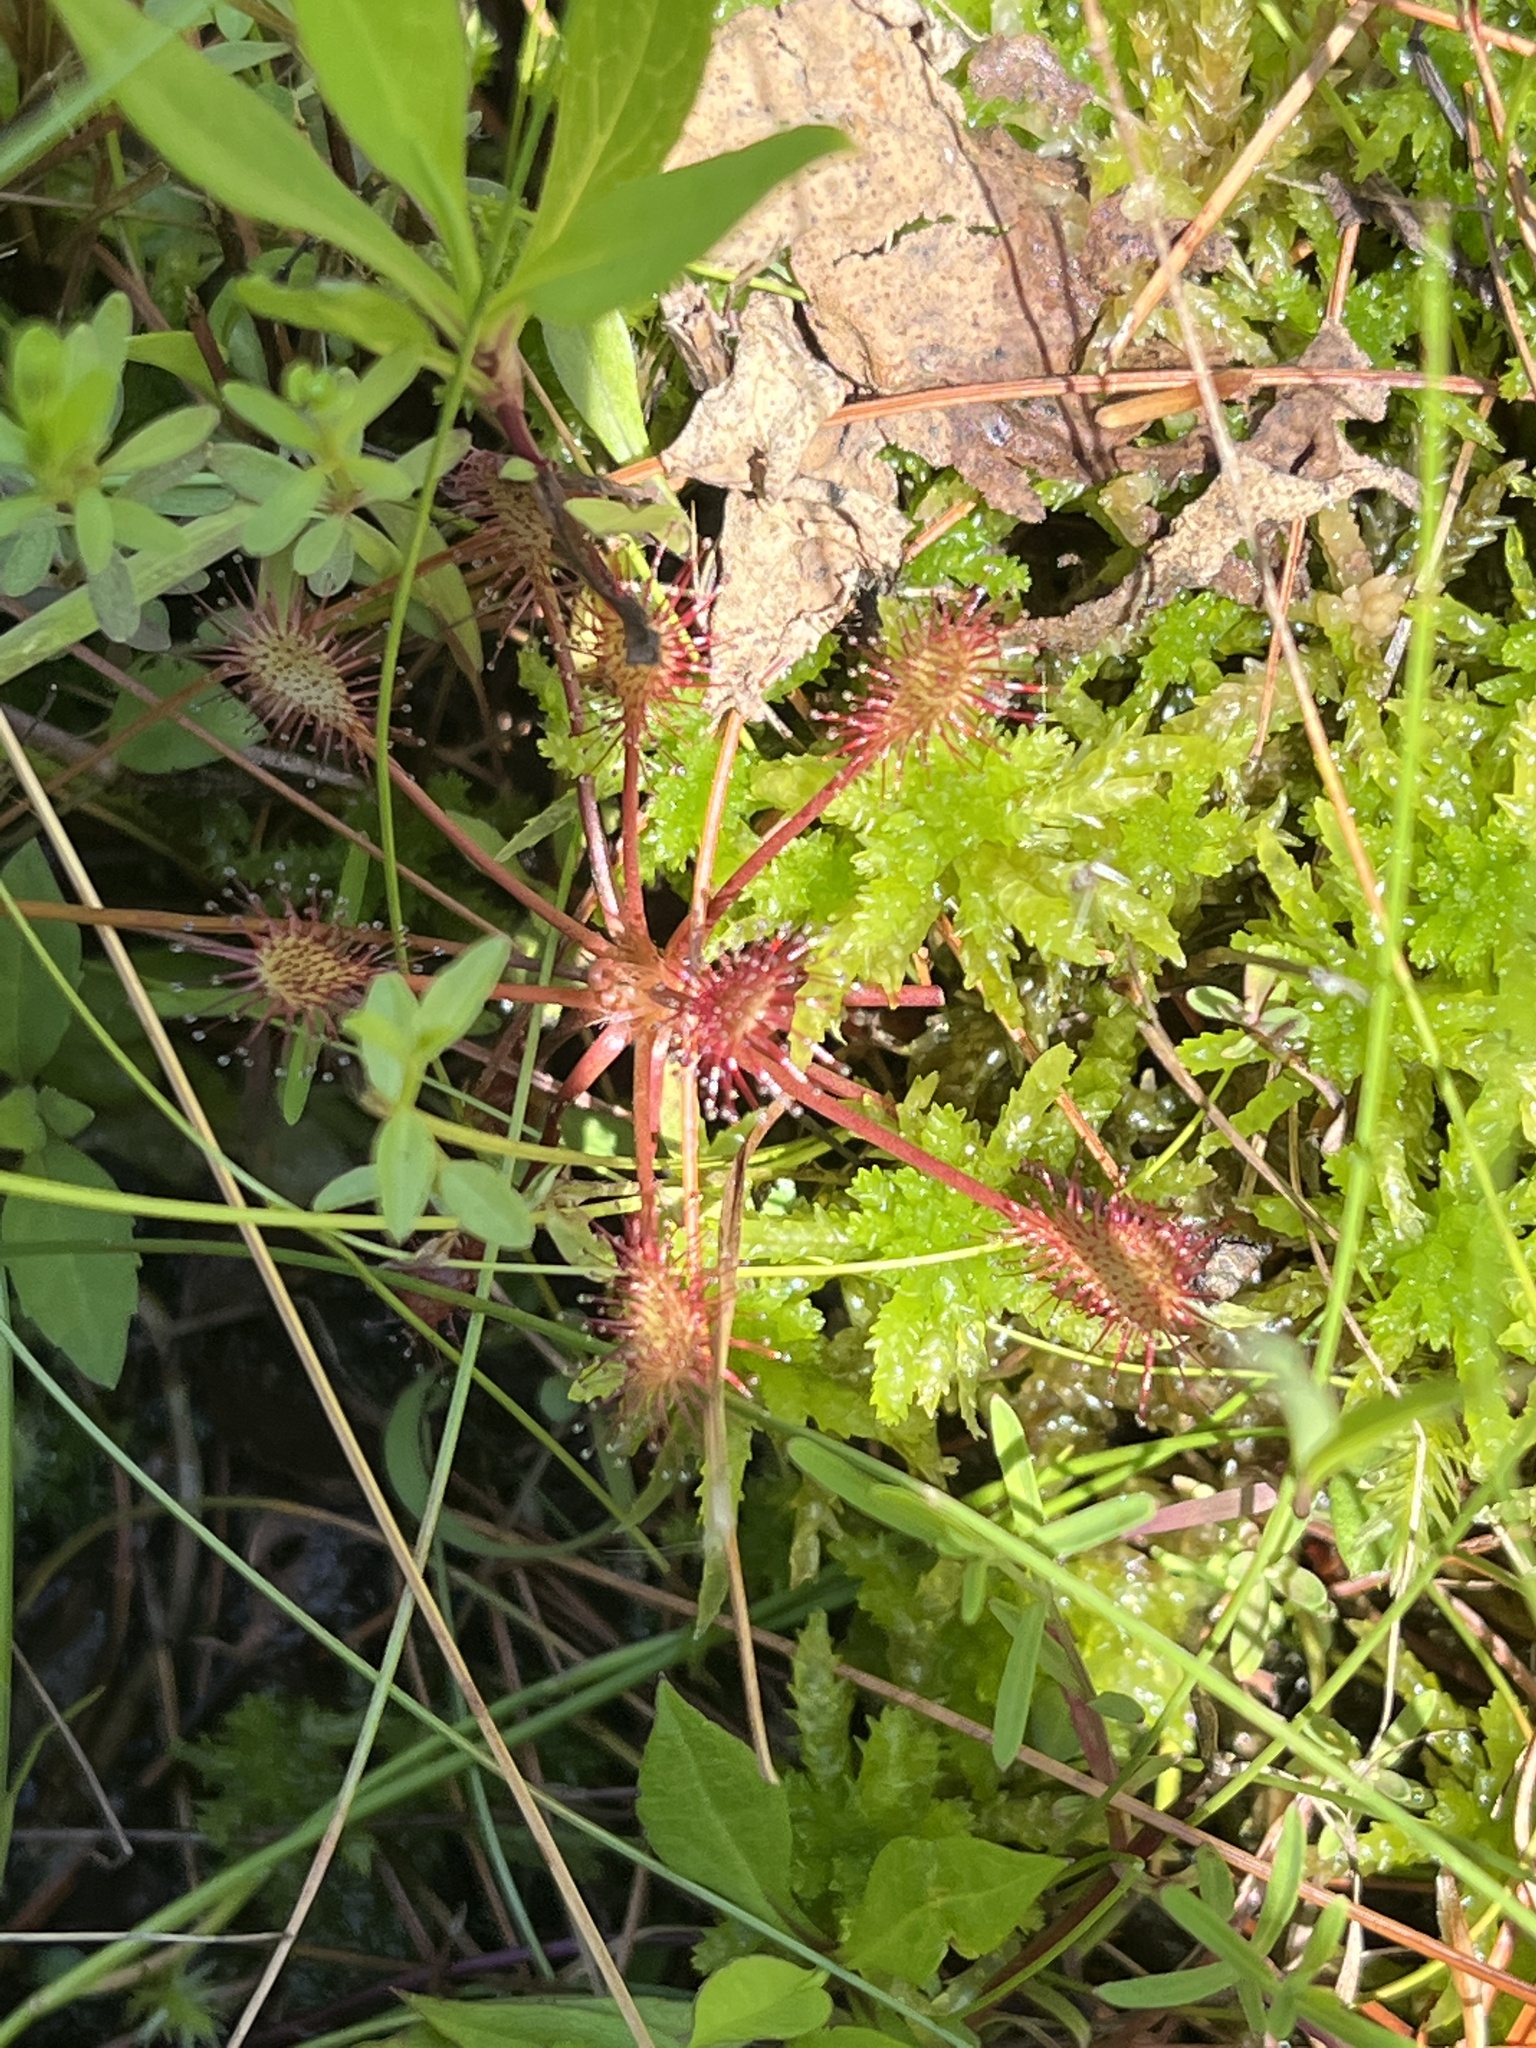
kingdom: Plantae
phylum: Tracheophyta
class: Magnoliopsida
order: Caryophyllales
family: Droseraceae
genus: Drosera
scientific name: Drosera rotundifolia
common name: Round-leaved sundew
